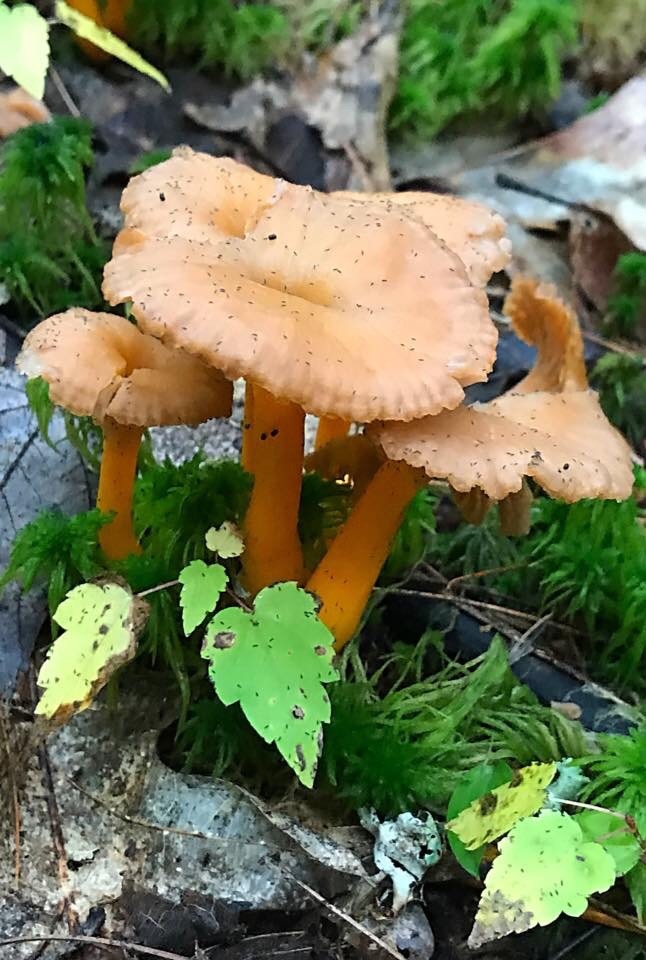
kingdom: Fungi
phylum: Basidiomycota
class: Agaricomycetes
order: Cantharellales
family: Hydnaceae
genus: Craterellus
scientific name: Craterellus ignicolor
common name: Flame chanterelle
